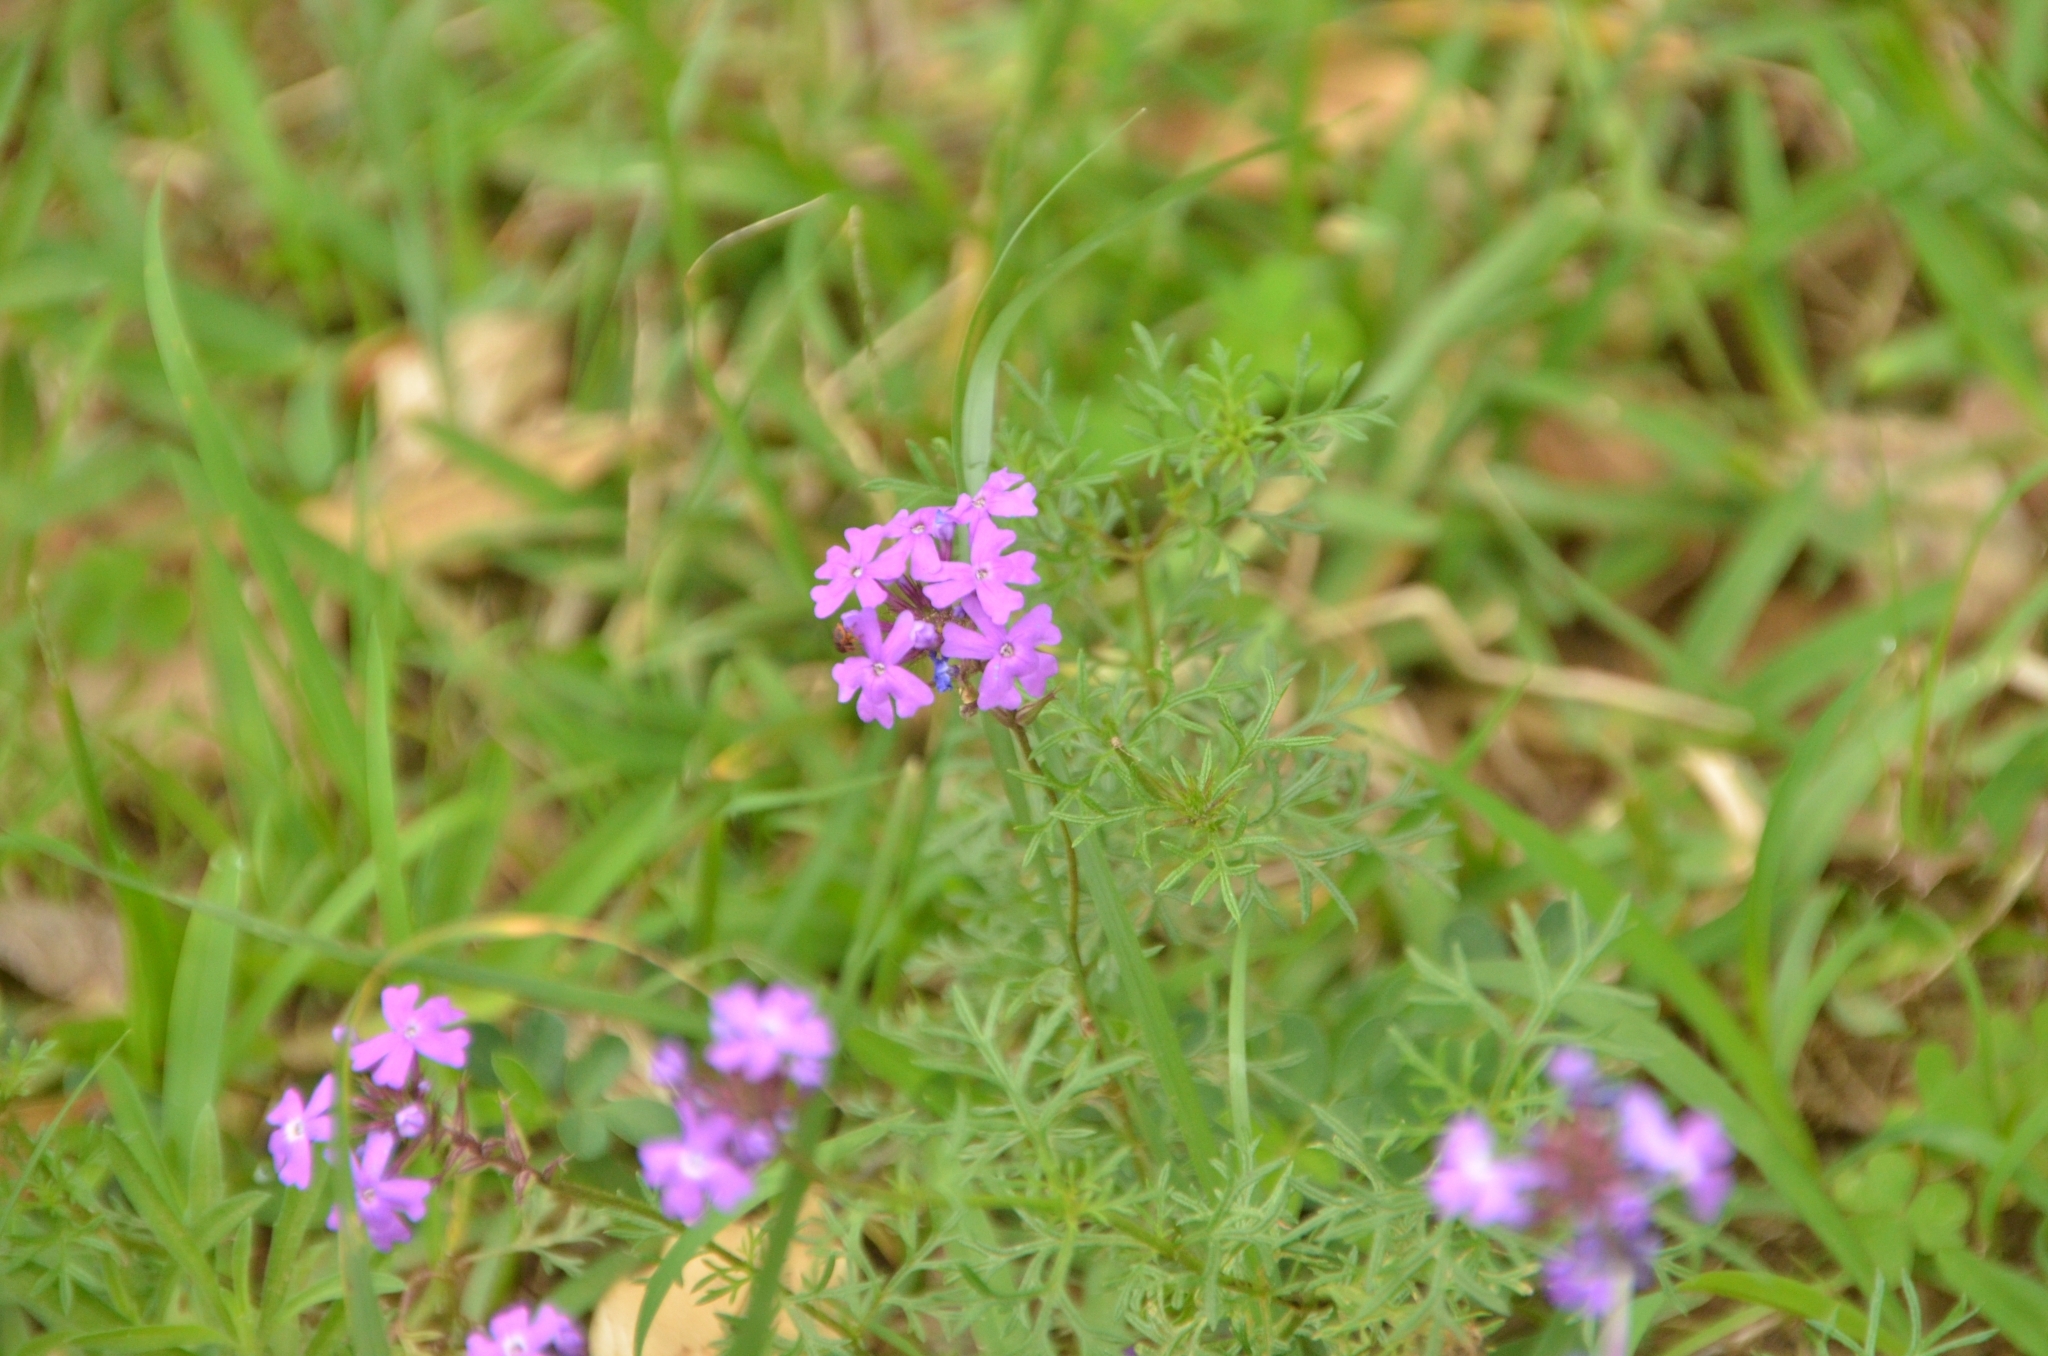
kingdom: Plantae
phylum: Tracheophyta
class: Magnoliopsida
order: Lamiales
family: Verbenaceae
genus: Verbena
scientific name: Verbena aristigera
